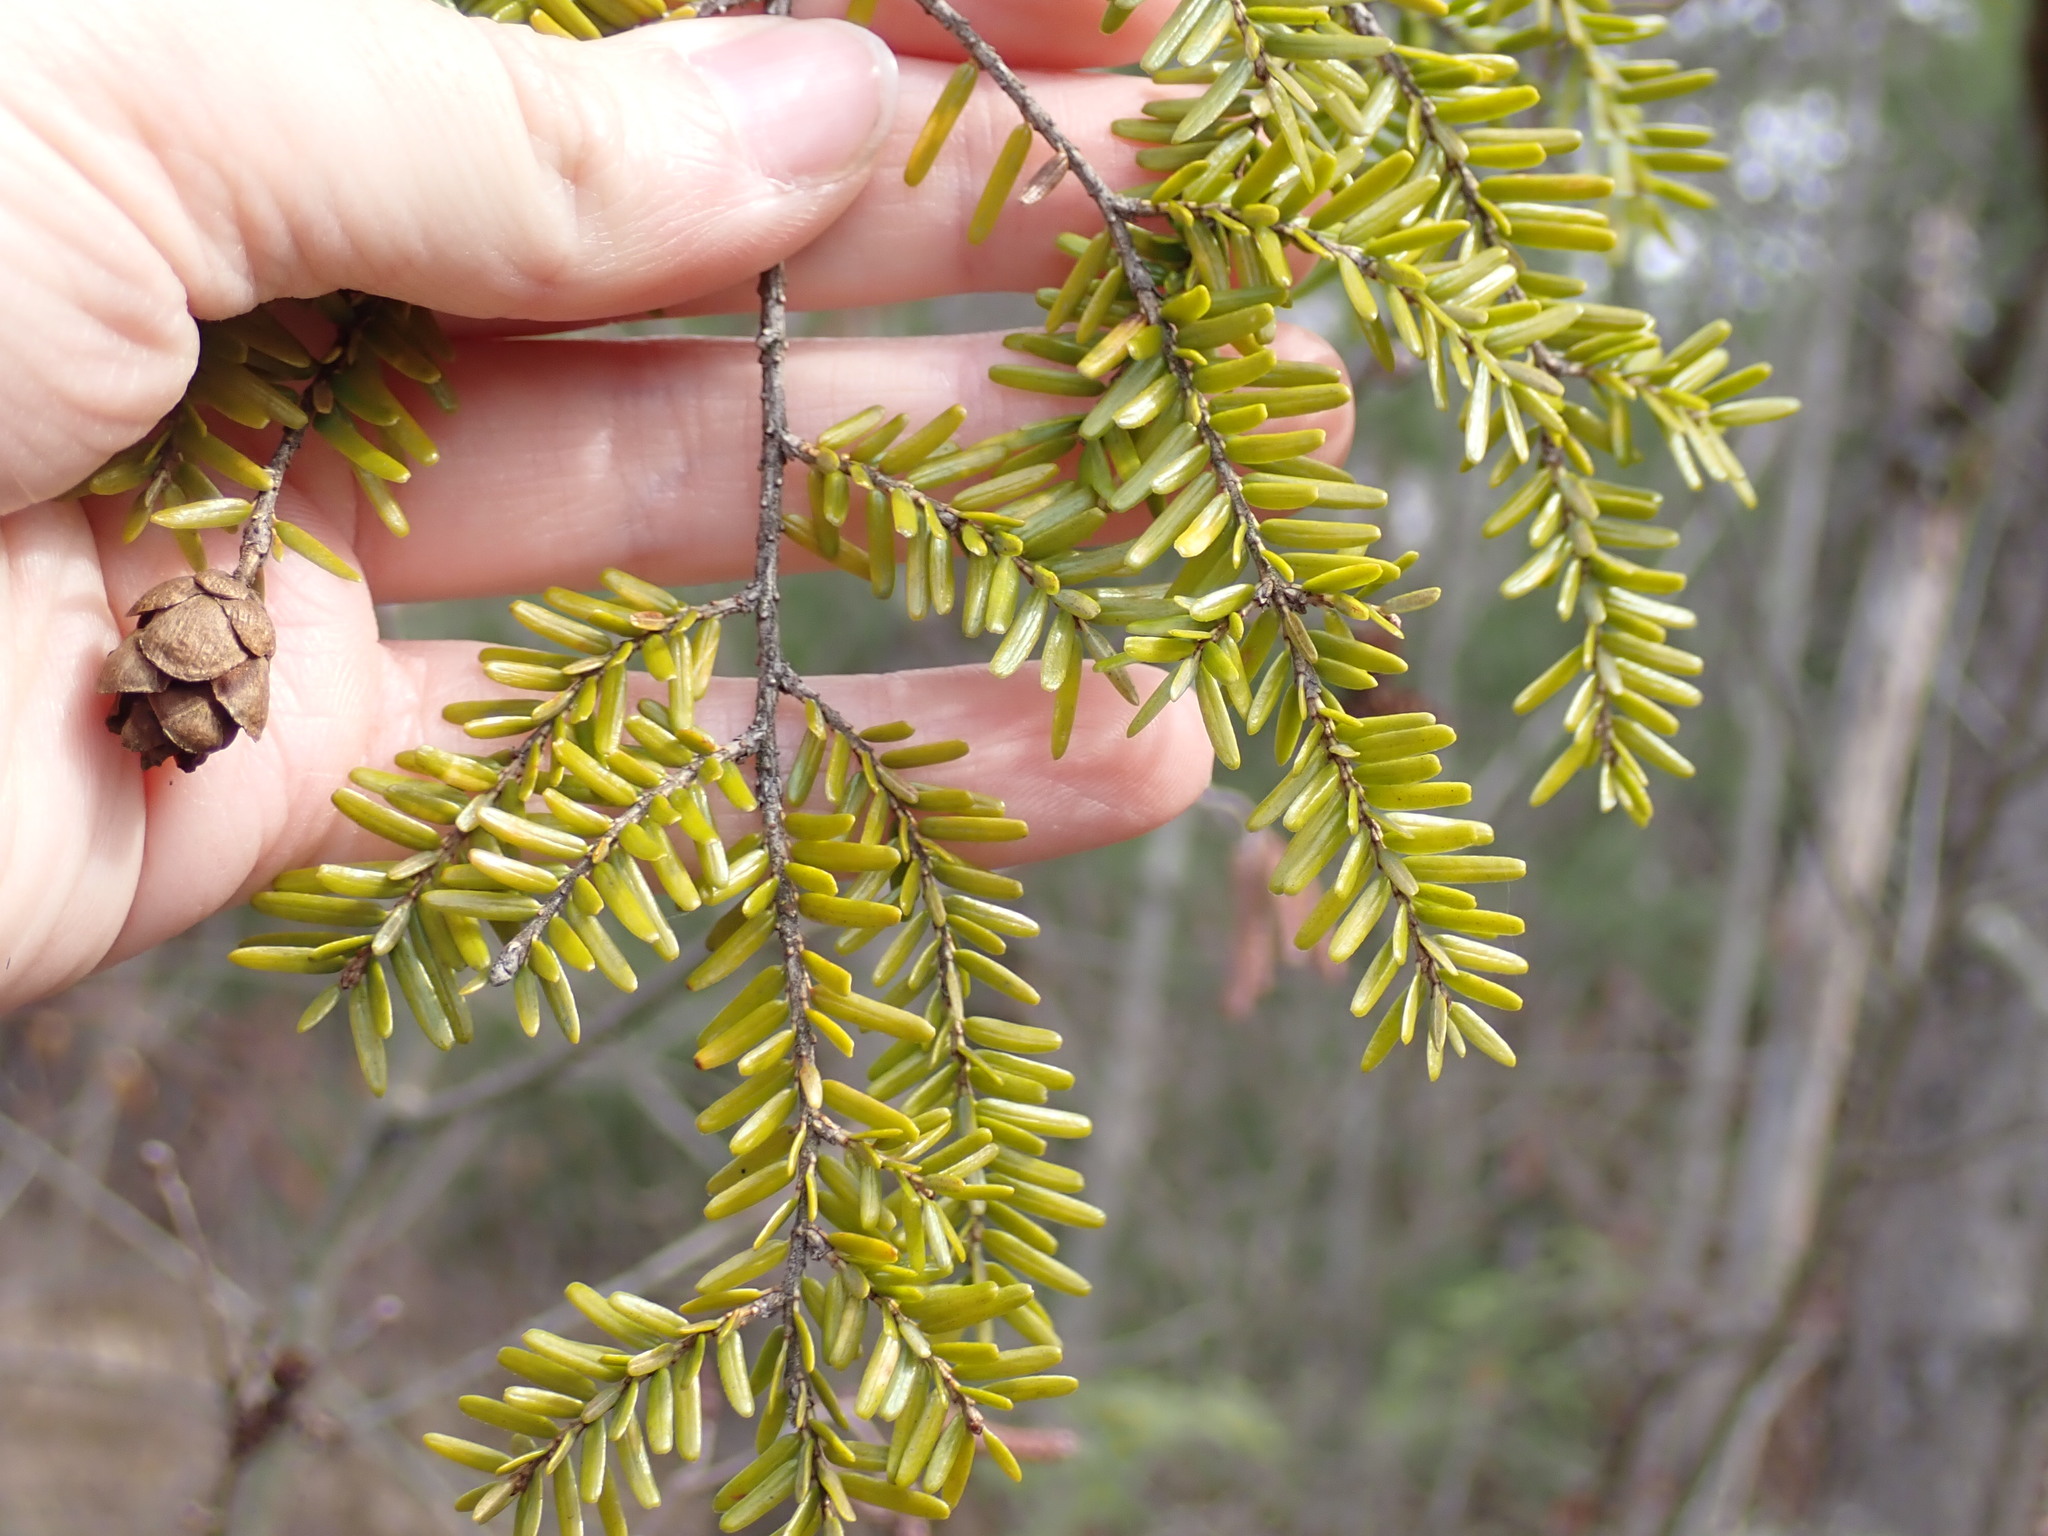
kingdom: Plantae
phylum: Tracheophyta
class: Pinopsida
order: Pinales
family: Pinaceae
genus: Tsuga
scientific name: Tsuga canadensis
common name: Eastern hemlock
